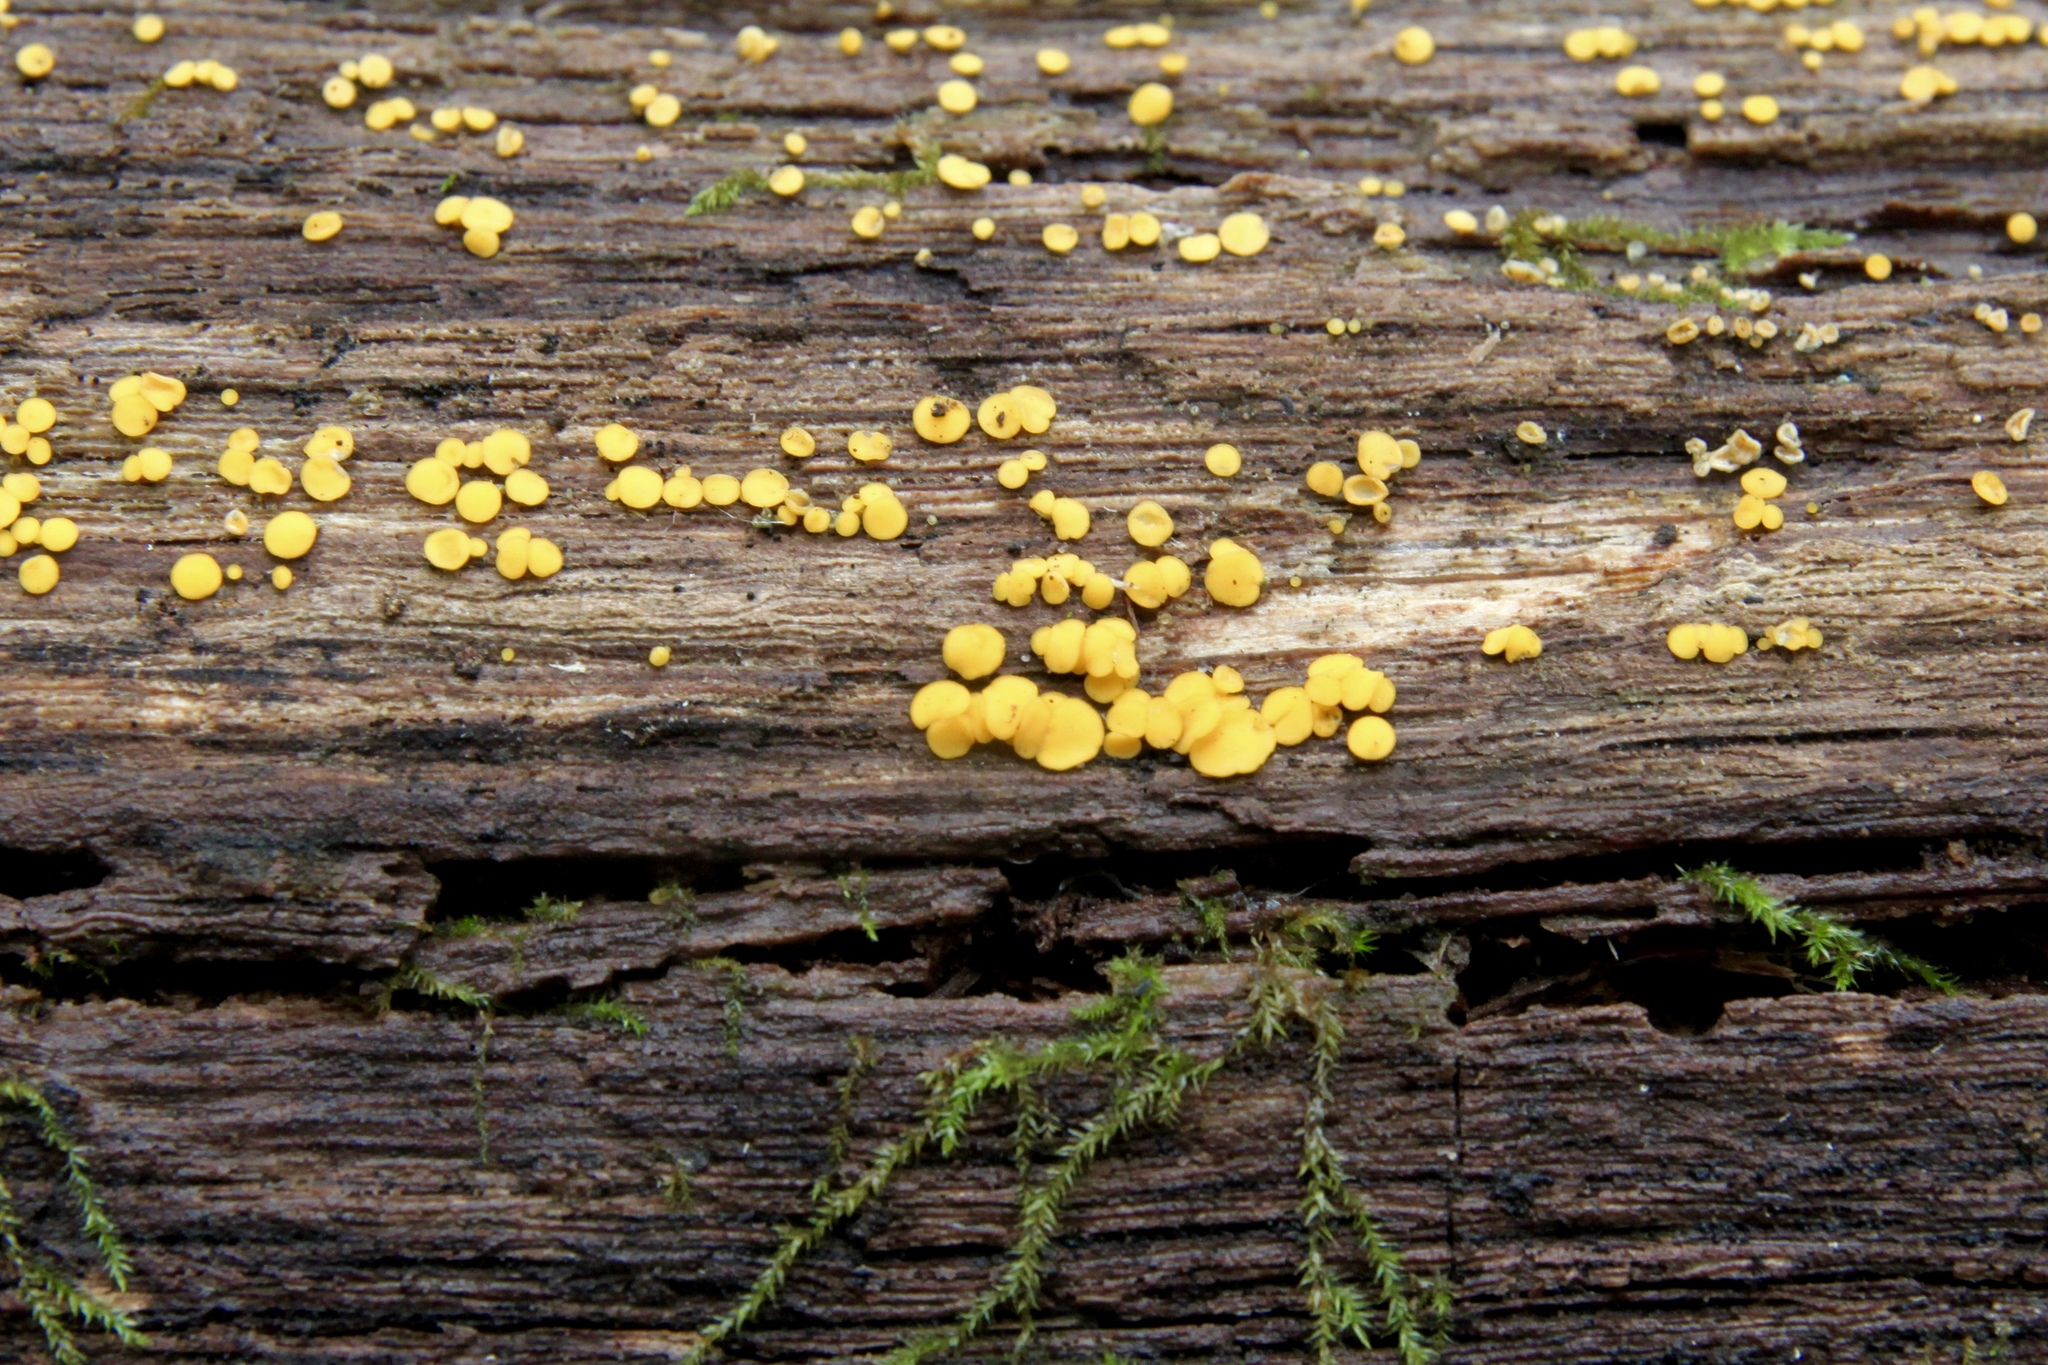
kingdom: Fungi
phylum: Ascomycota
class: Leotiomycetes
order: Helotiales
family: Pezizellaceae
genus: Calycina
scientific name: Calycina citrina
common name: Yellow fairy cups
